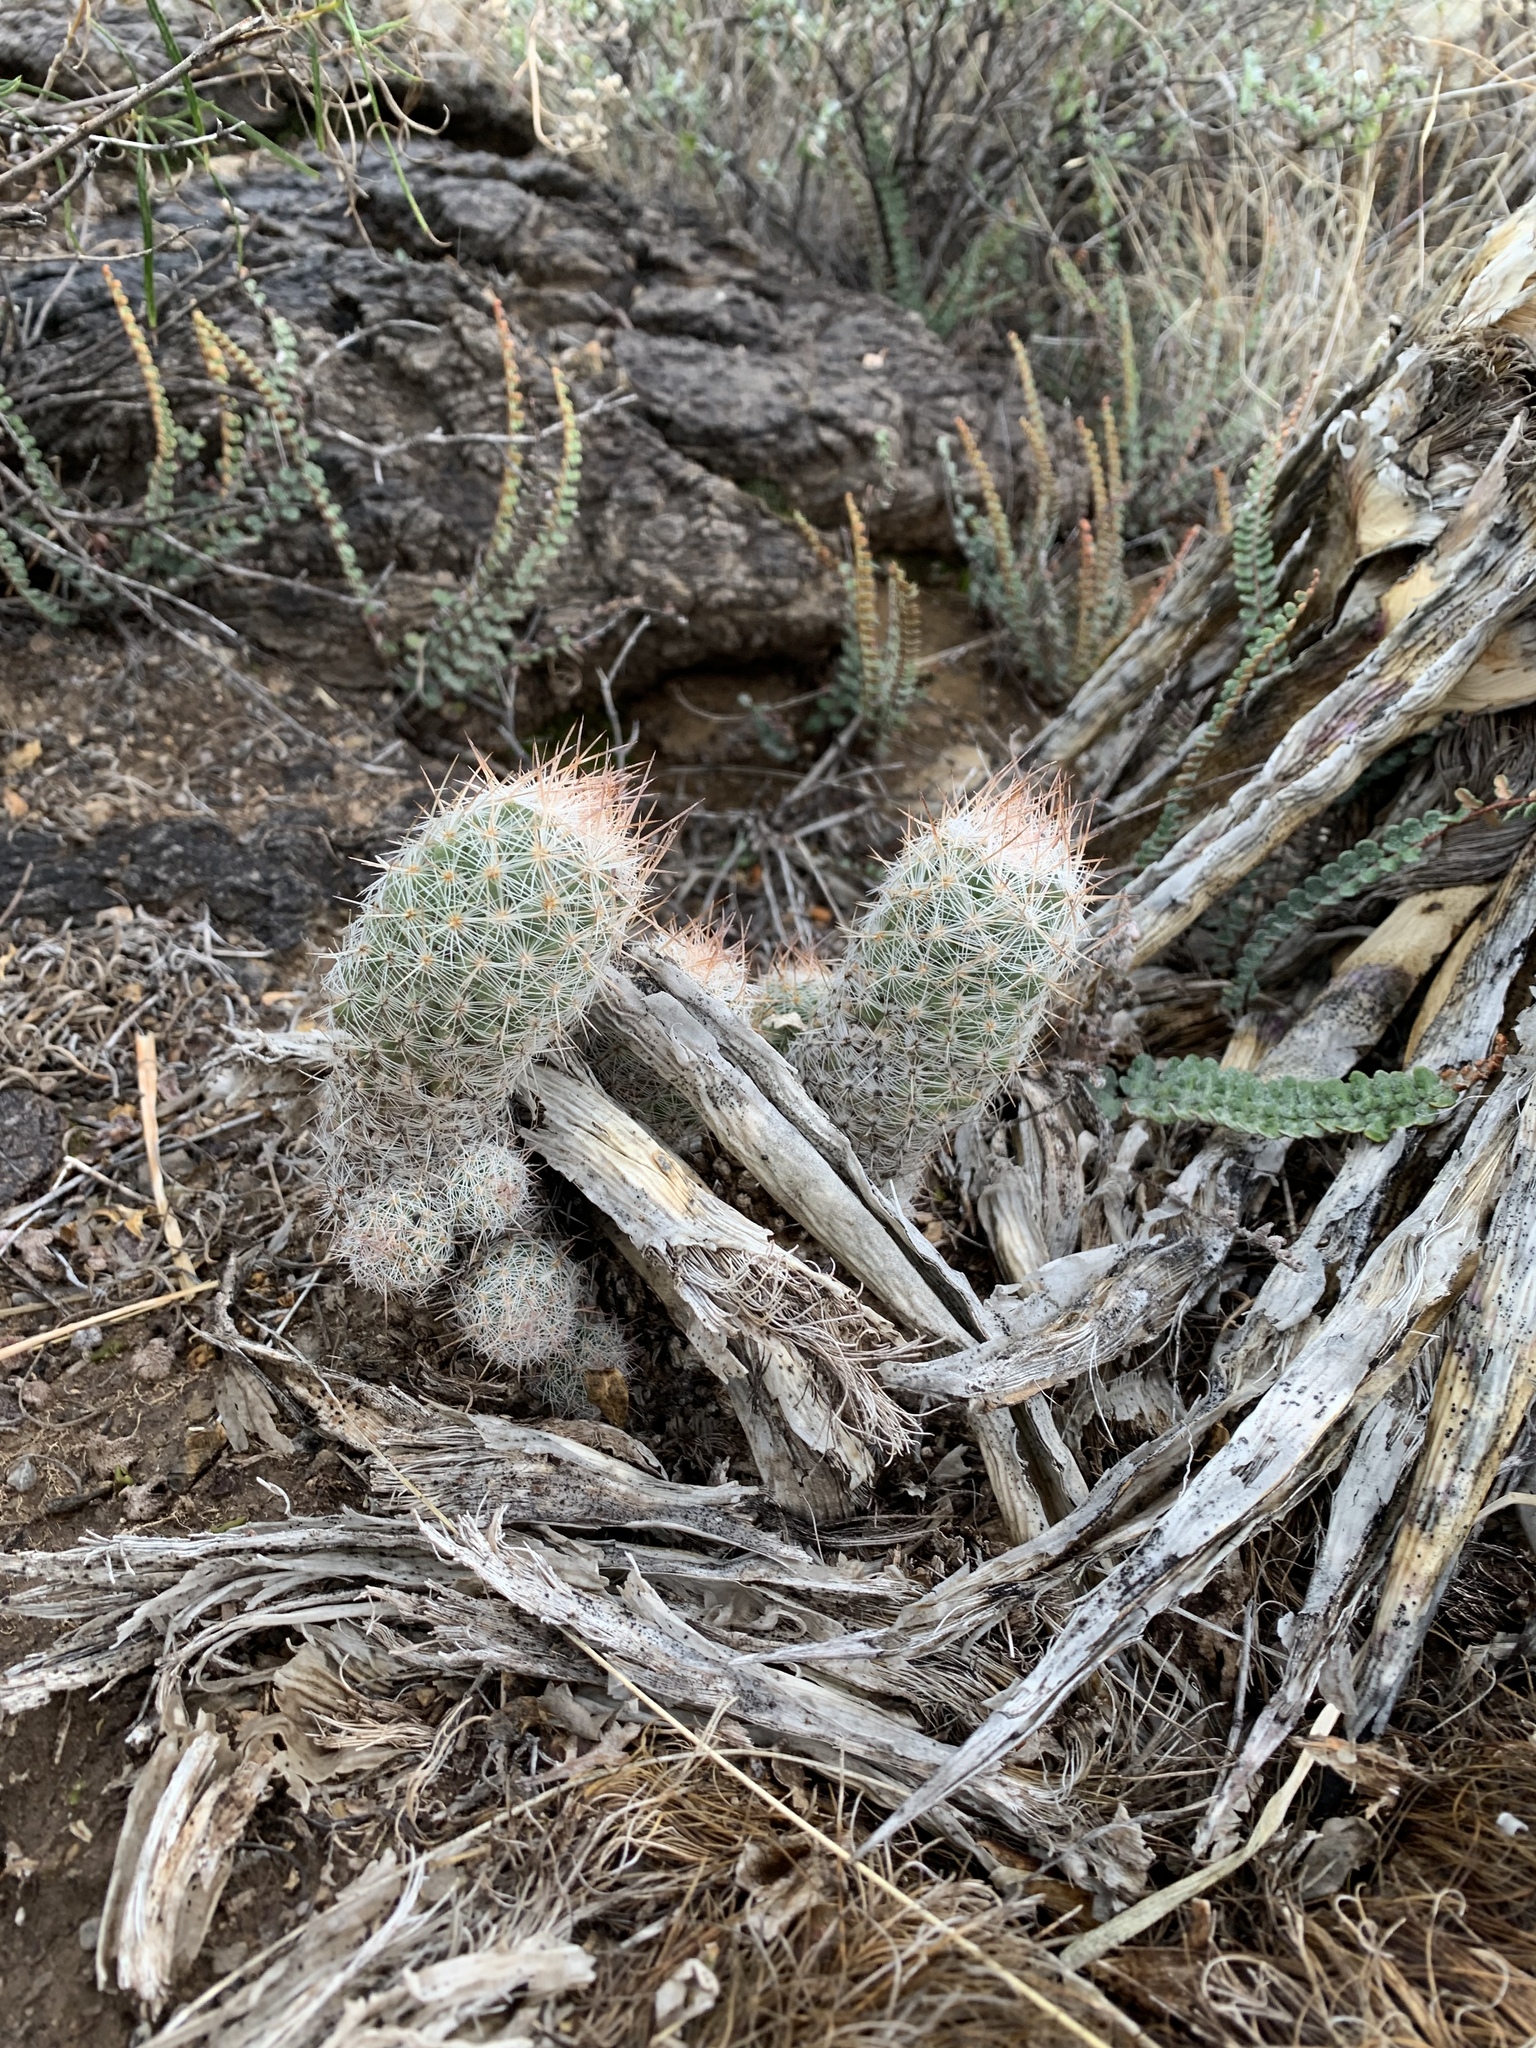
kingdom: Plantae
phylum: Tracheophyta
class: Magnoliopsida
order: Caryophyllales
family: Cactaceae
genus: Pelecyphora
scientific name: Pelecyphora tuberculosa
